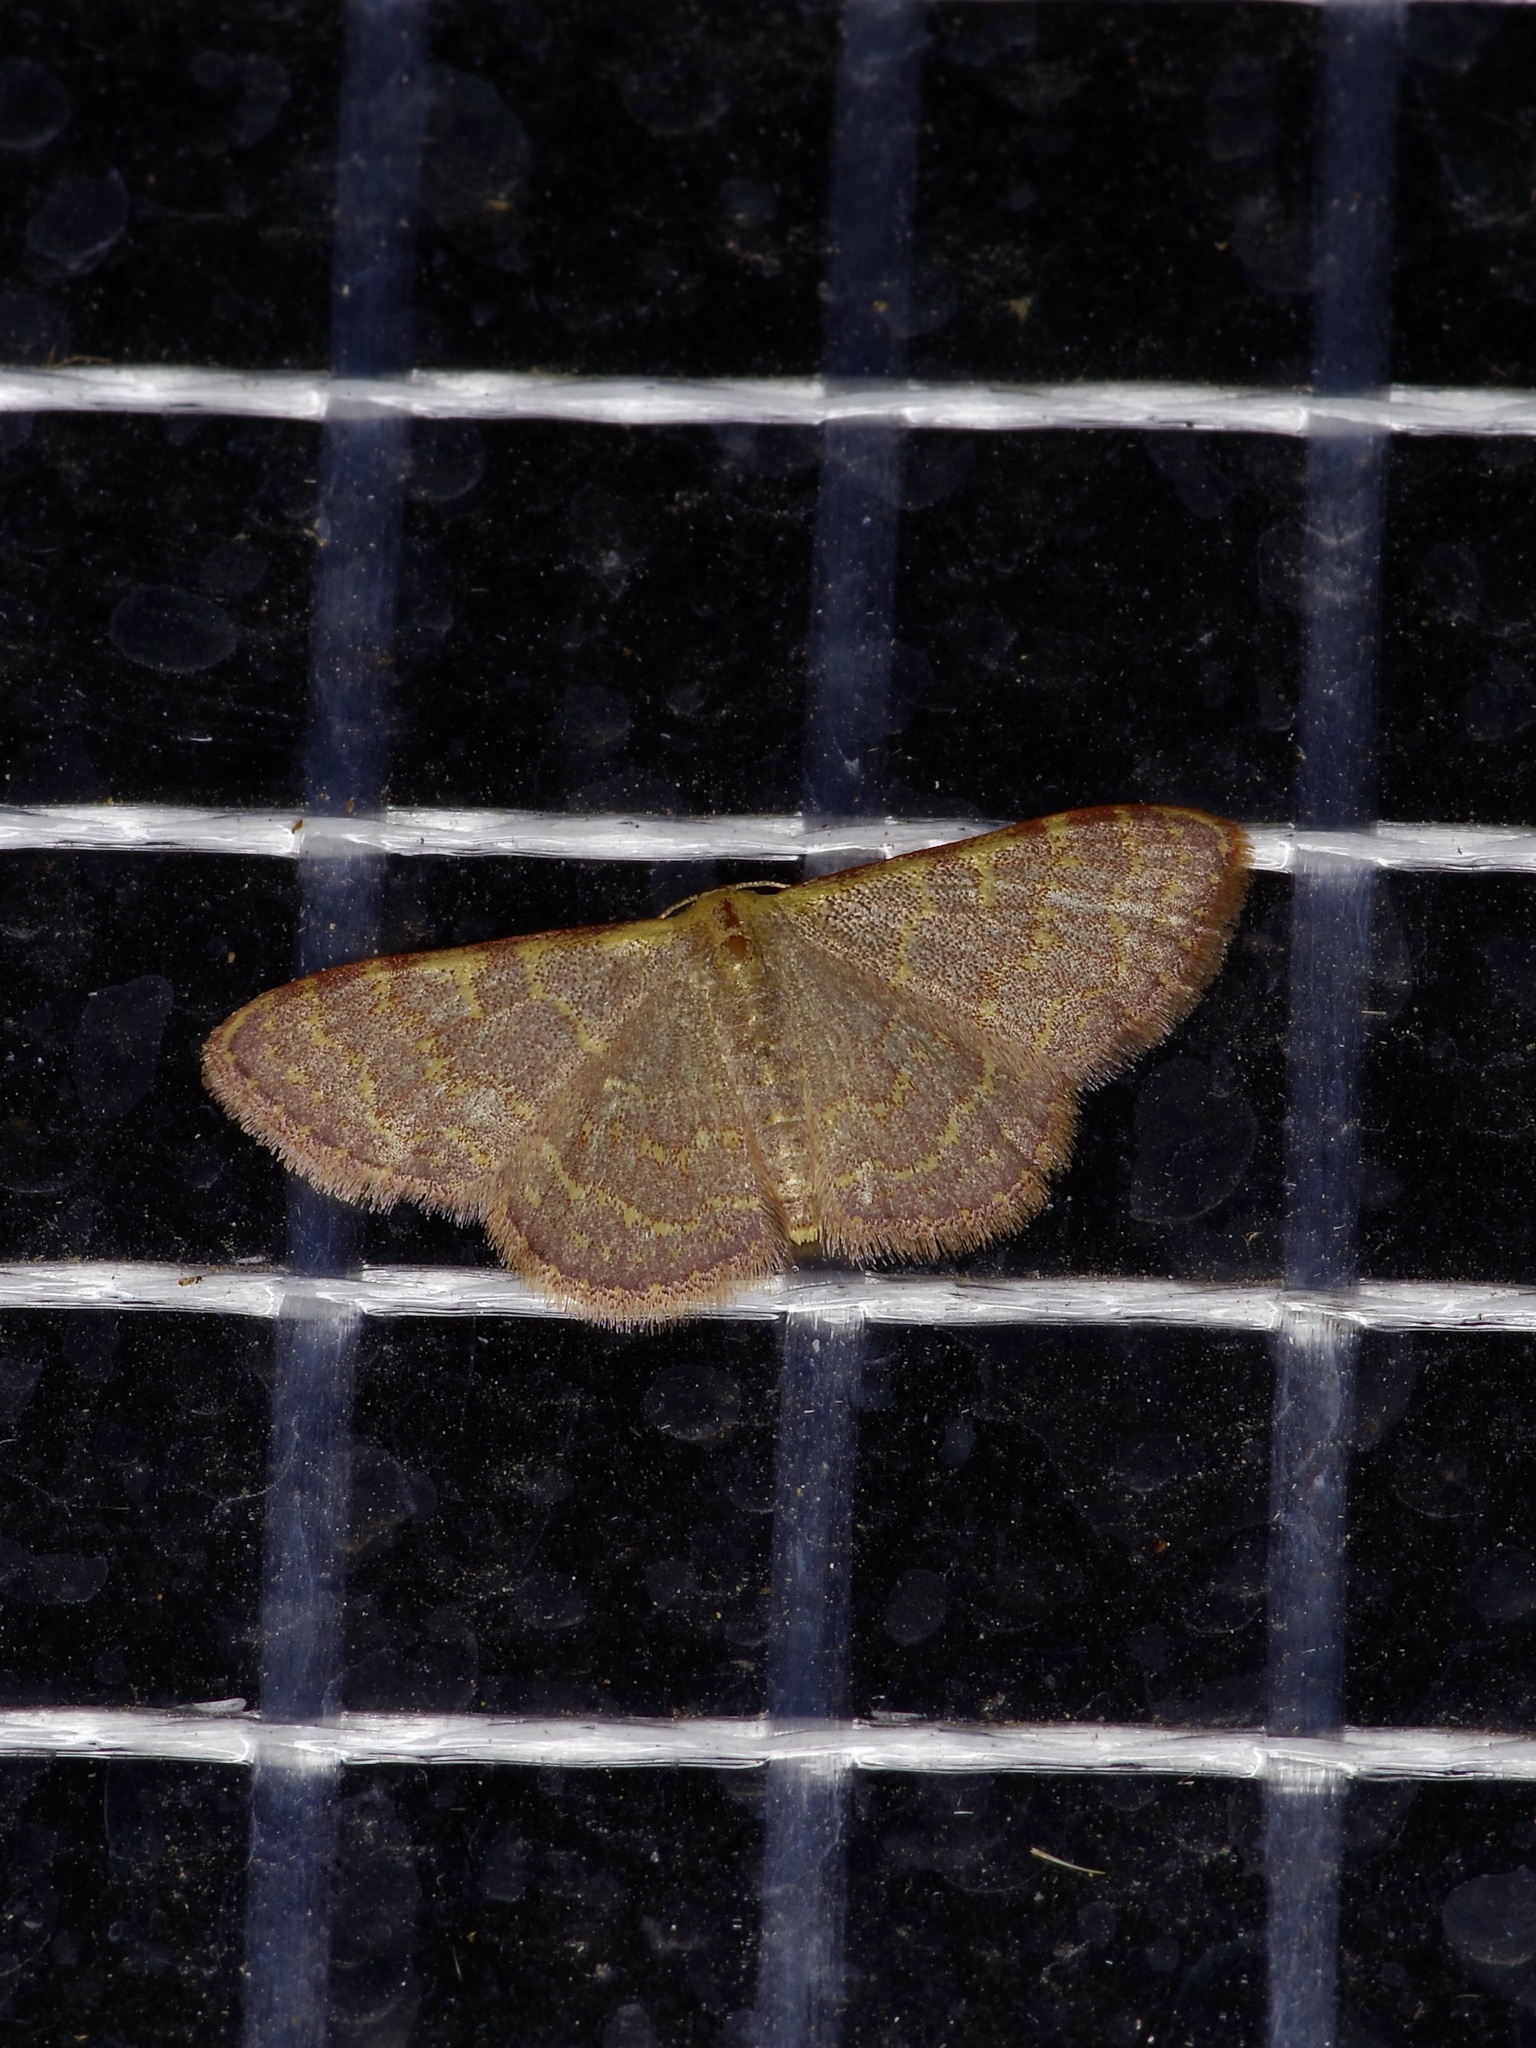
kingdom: Animalia
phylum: Arthropoda
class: Insecta
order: Lepidoptera
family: Geometridae
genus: Leptostales
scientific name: Leptostales pannaria
